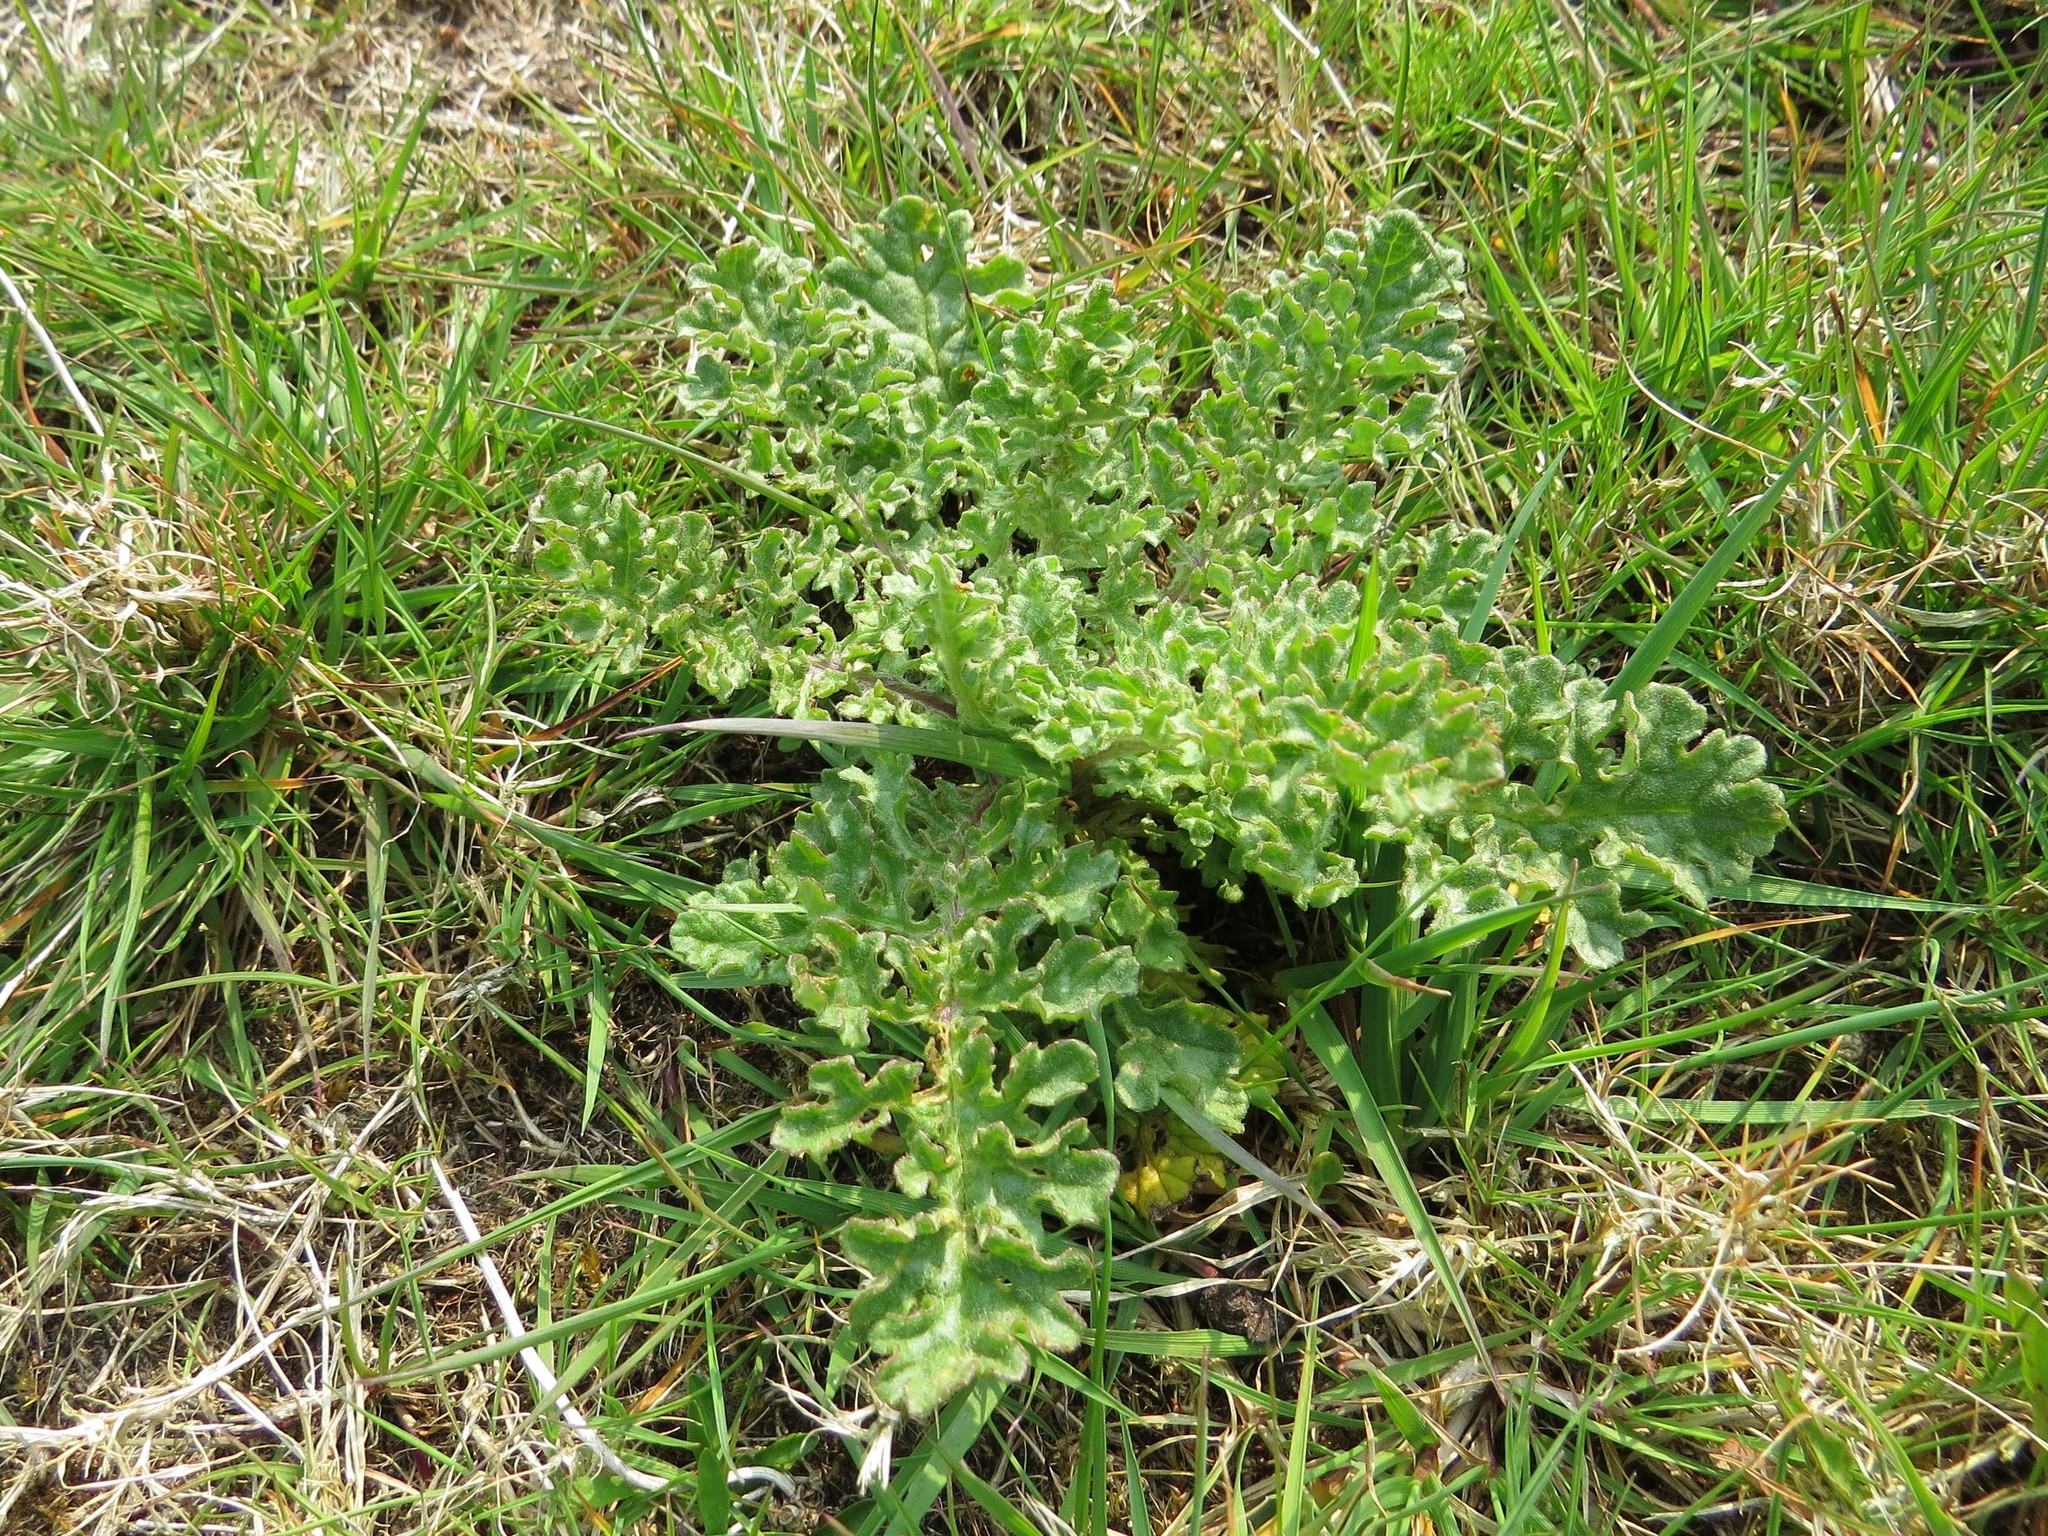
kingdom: Plantae
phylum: Tracheophyta
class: Magnoliopsida
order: Asterales
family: Asteraceae
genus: Jacobaea
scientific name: Jacobaea vulgaris
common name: Stinking willie
